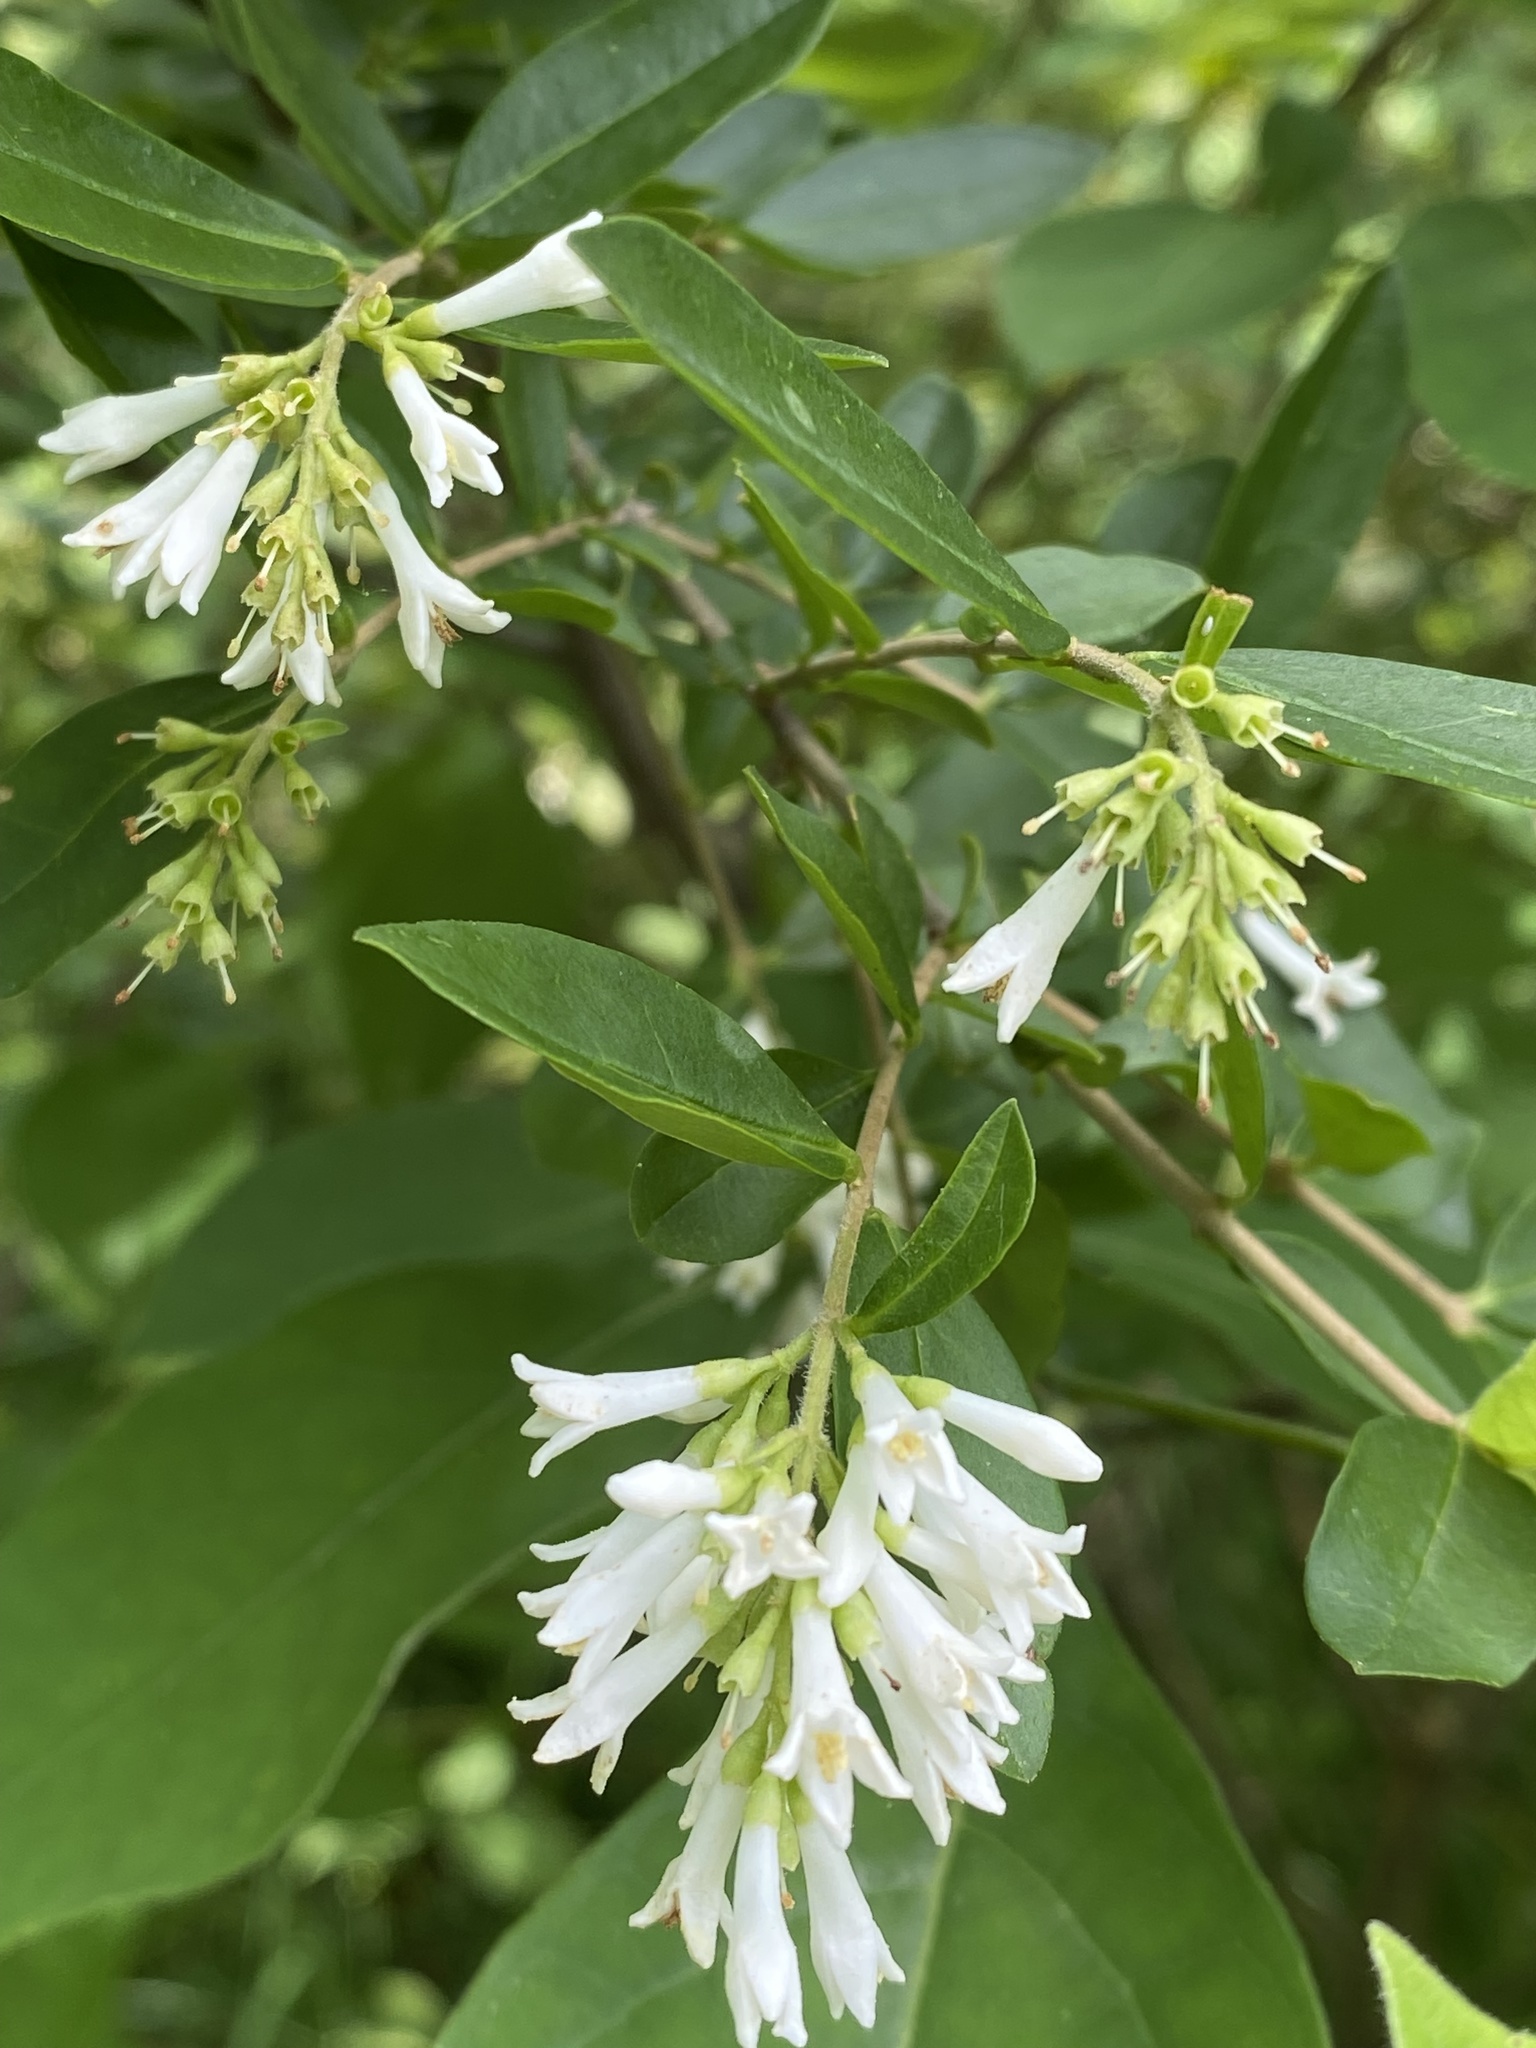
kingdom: Plantae
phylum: Tracheophyta
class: Magnoliopsida
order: Lamiales
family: Oleaceae
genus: Ligustrum
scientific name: Ligustrum obtusifolium
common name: Border privet
